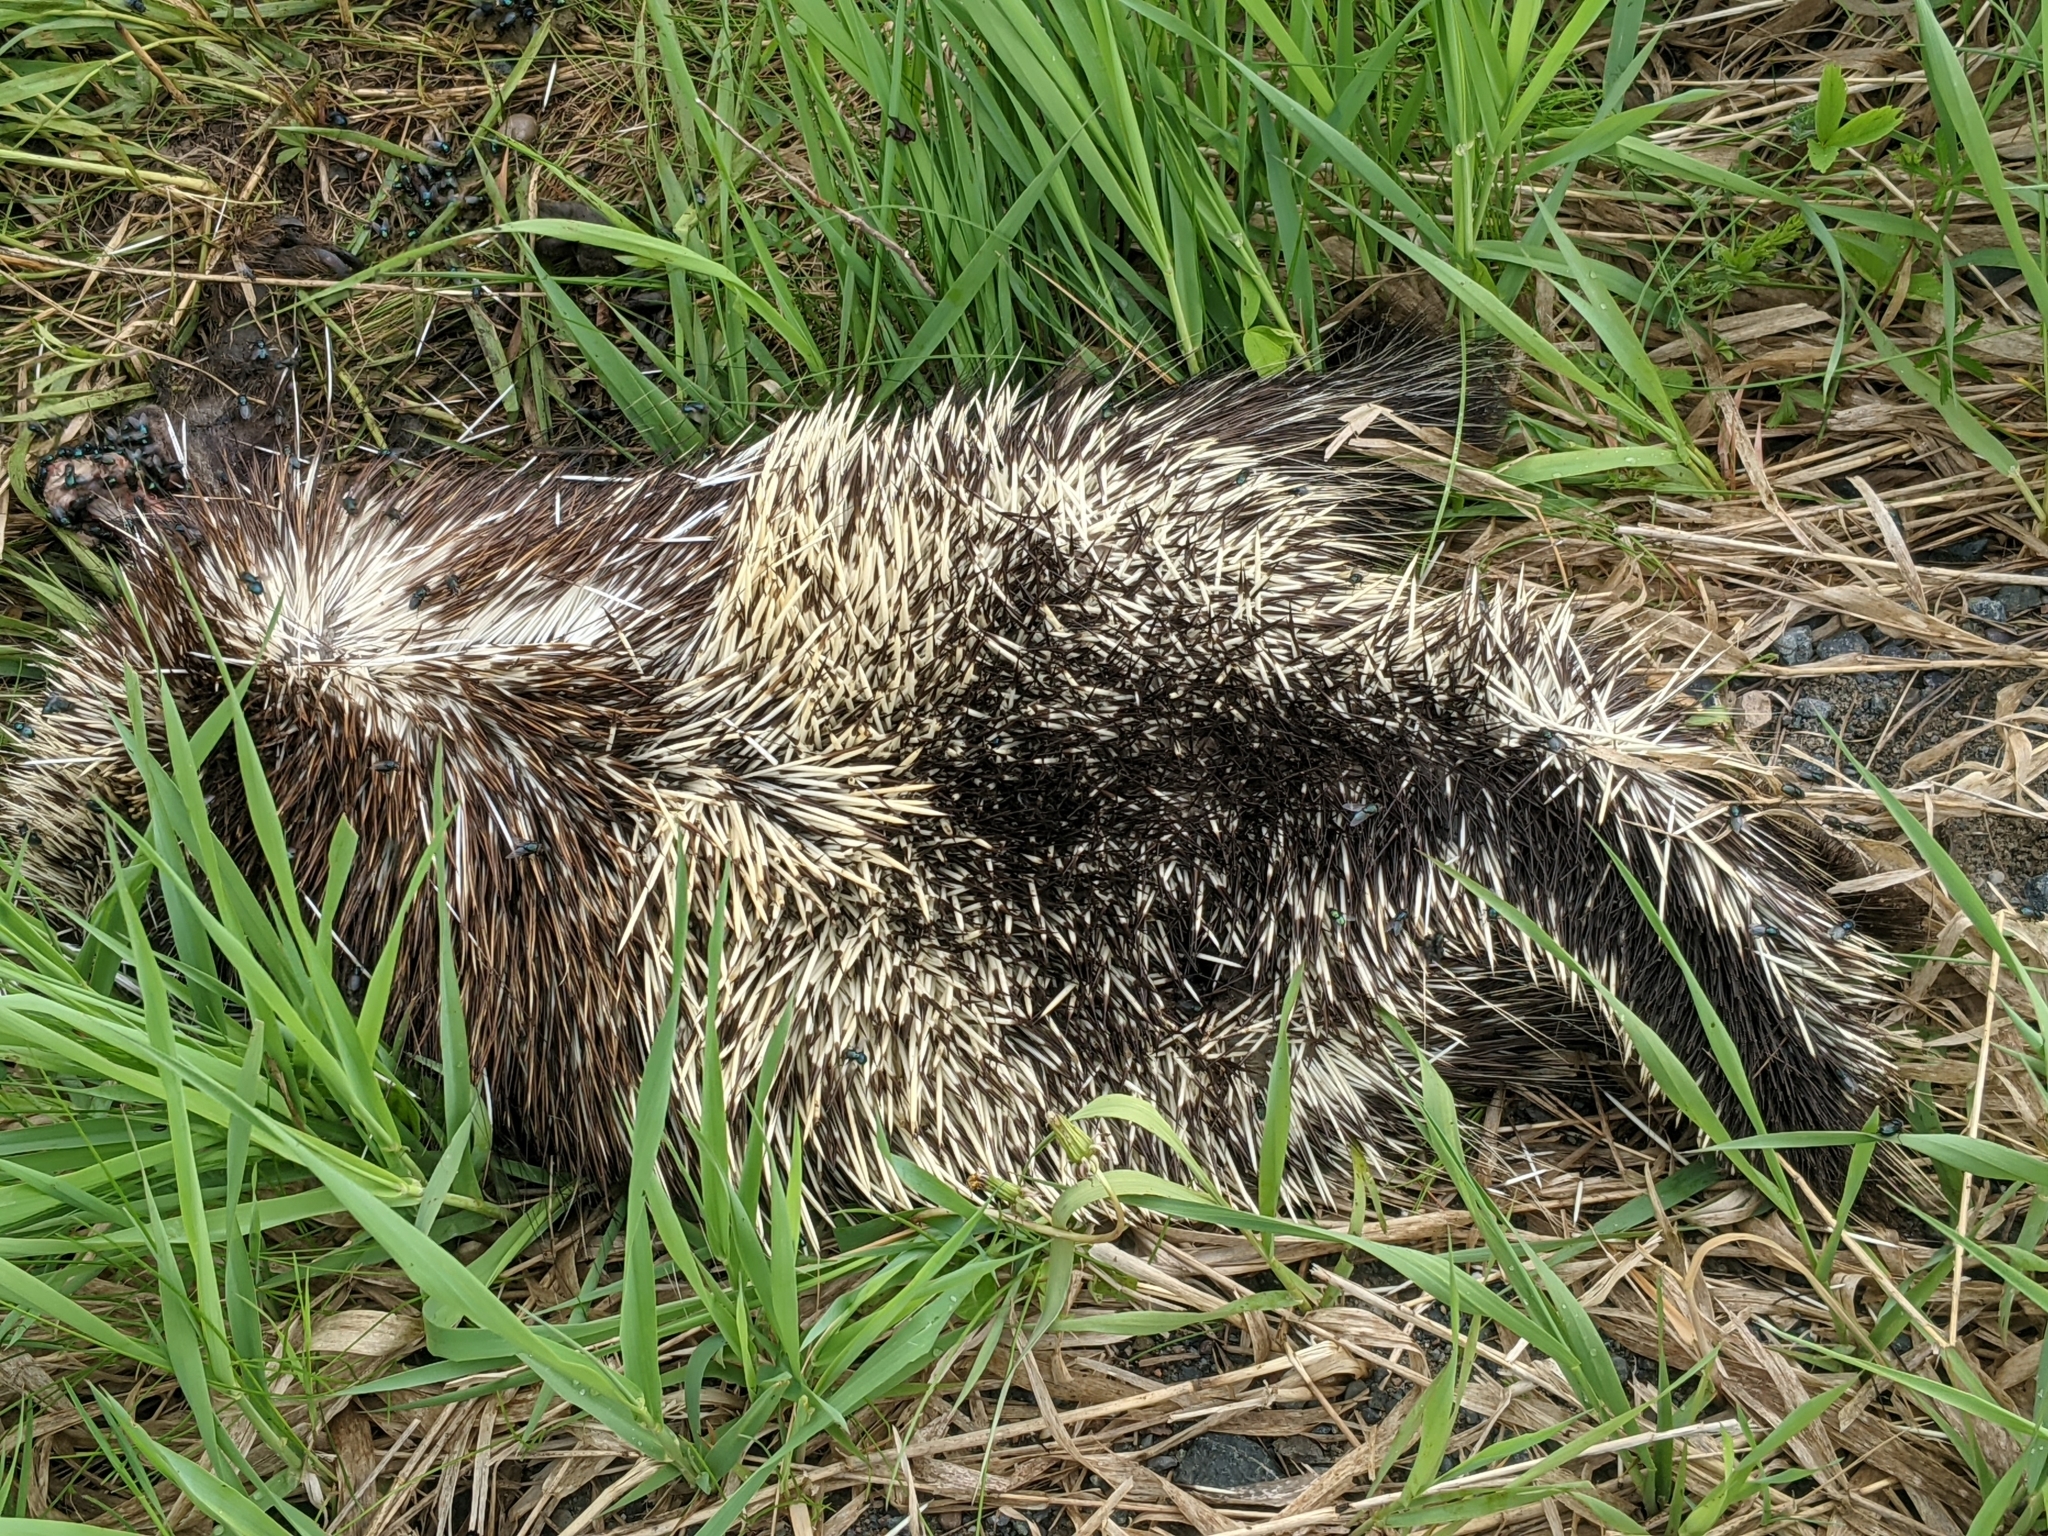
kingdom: Animalia
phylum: Chordata
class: Mammalia
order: Rodentia
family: Erethizontidae
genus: Erethizon
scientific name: Erethizon dorsatus
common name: North american porcupine
